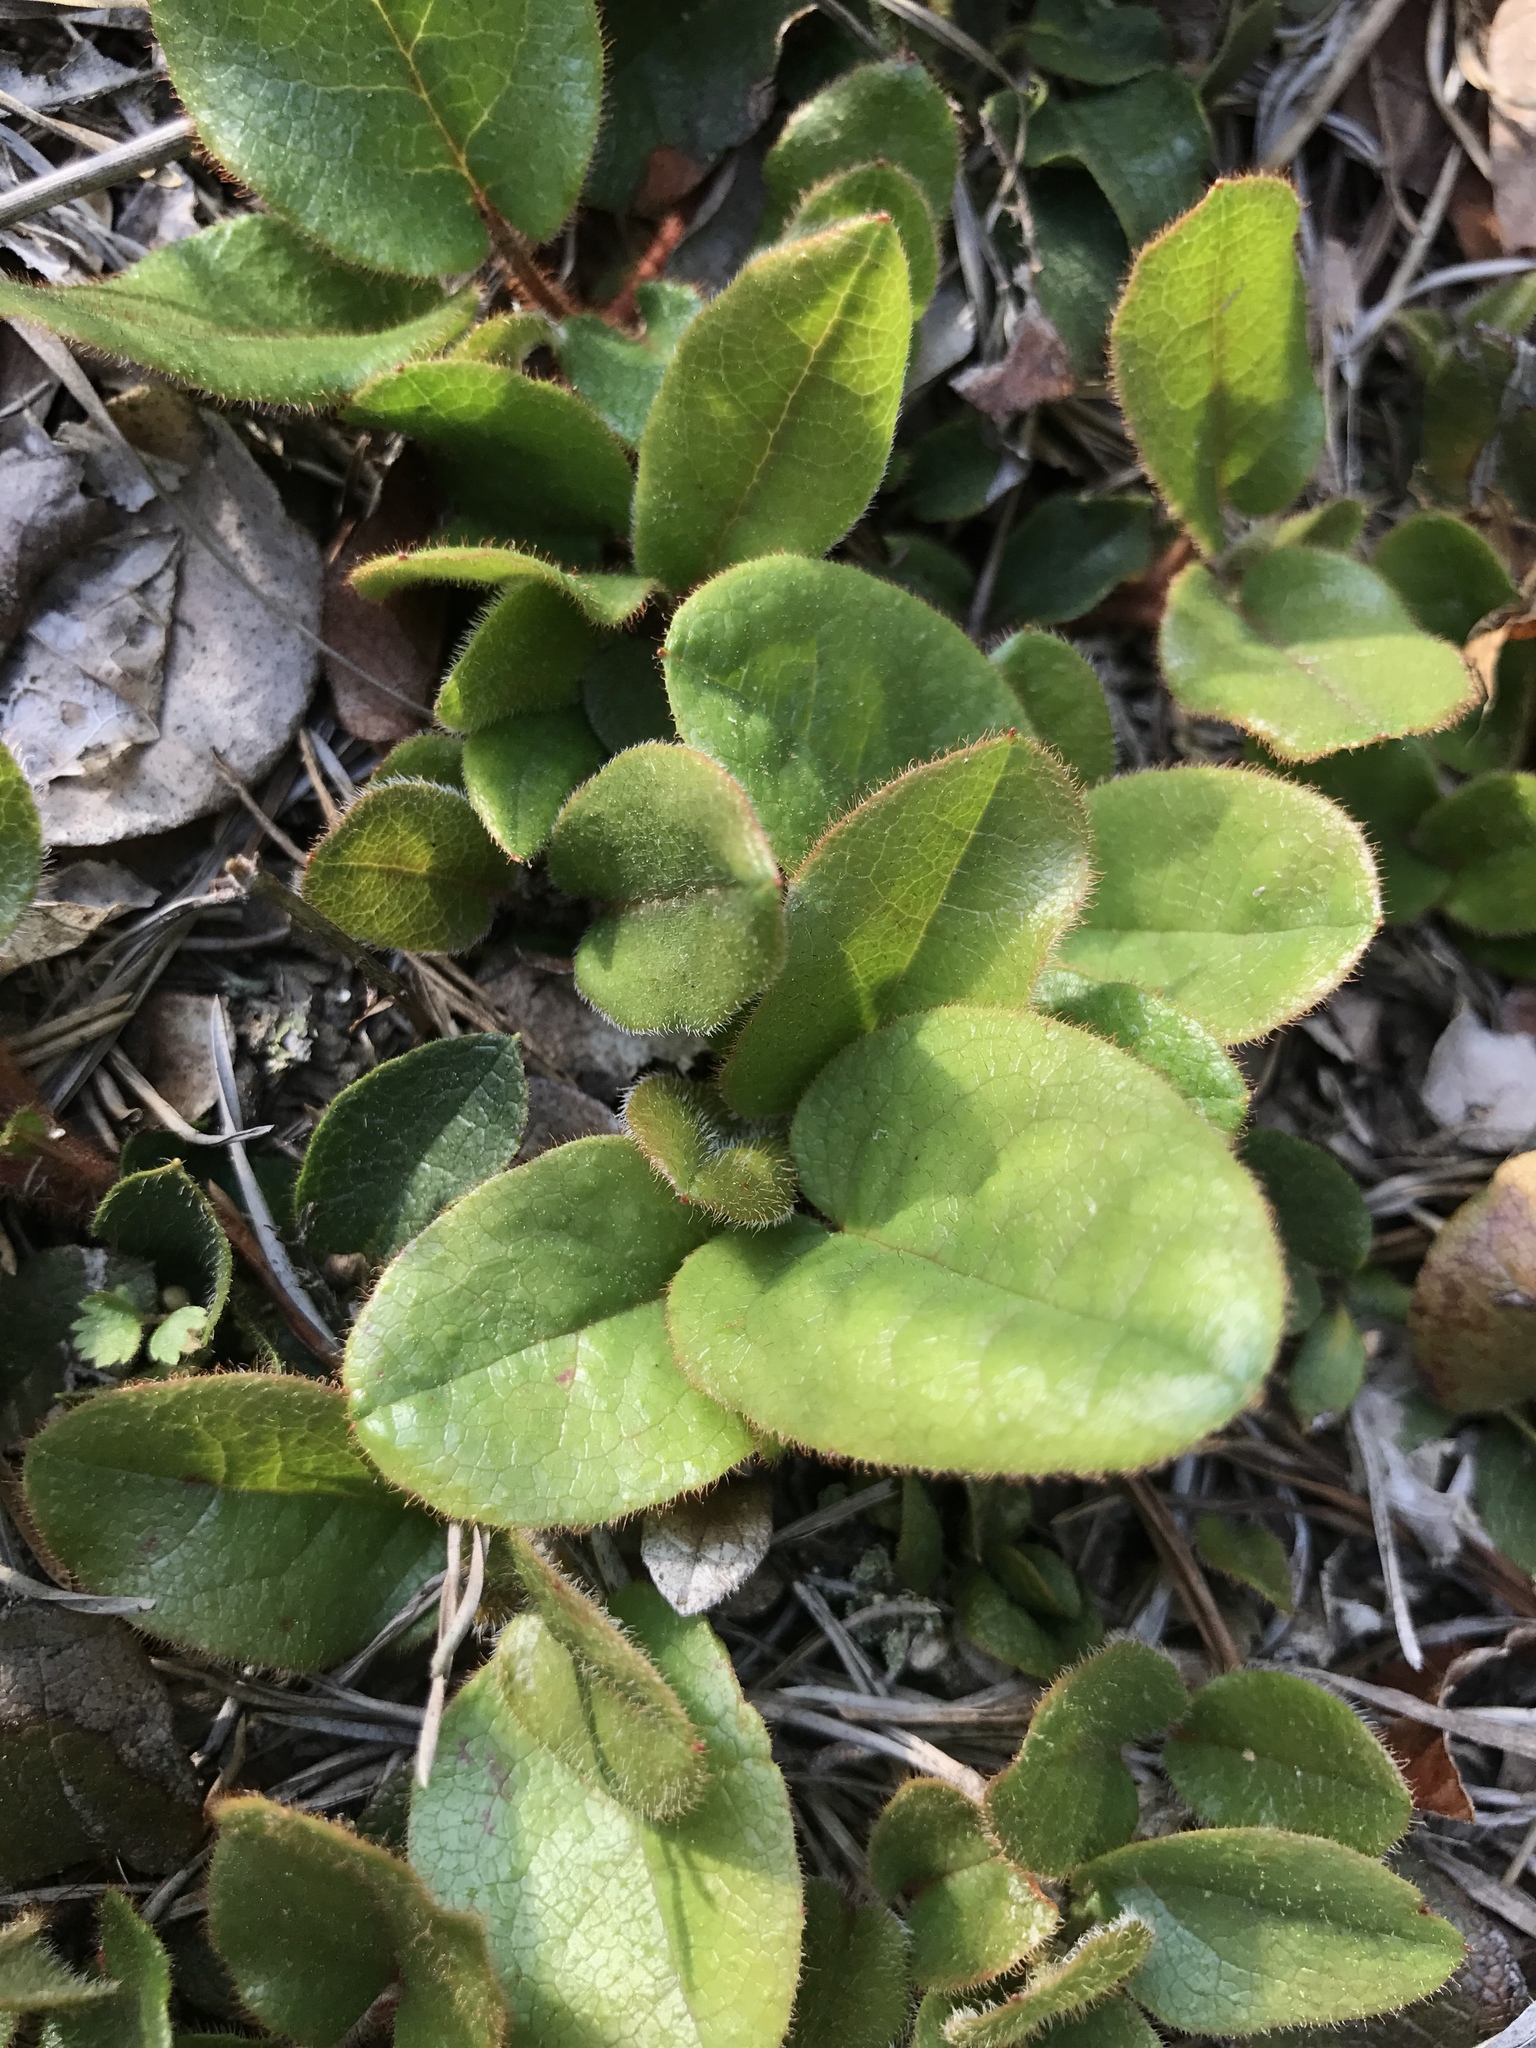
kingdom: Plantae
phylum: Tracheophyta
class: Magnoliopsida
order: Ericales
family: Ericaceae
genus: Epigaea
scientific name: Epigaea repens
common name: Gravelroot
